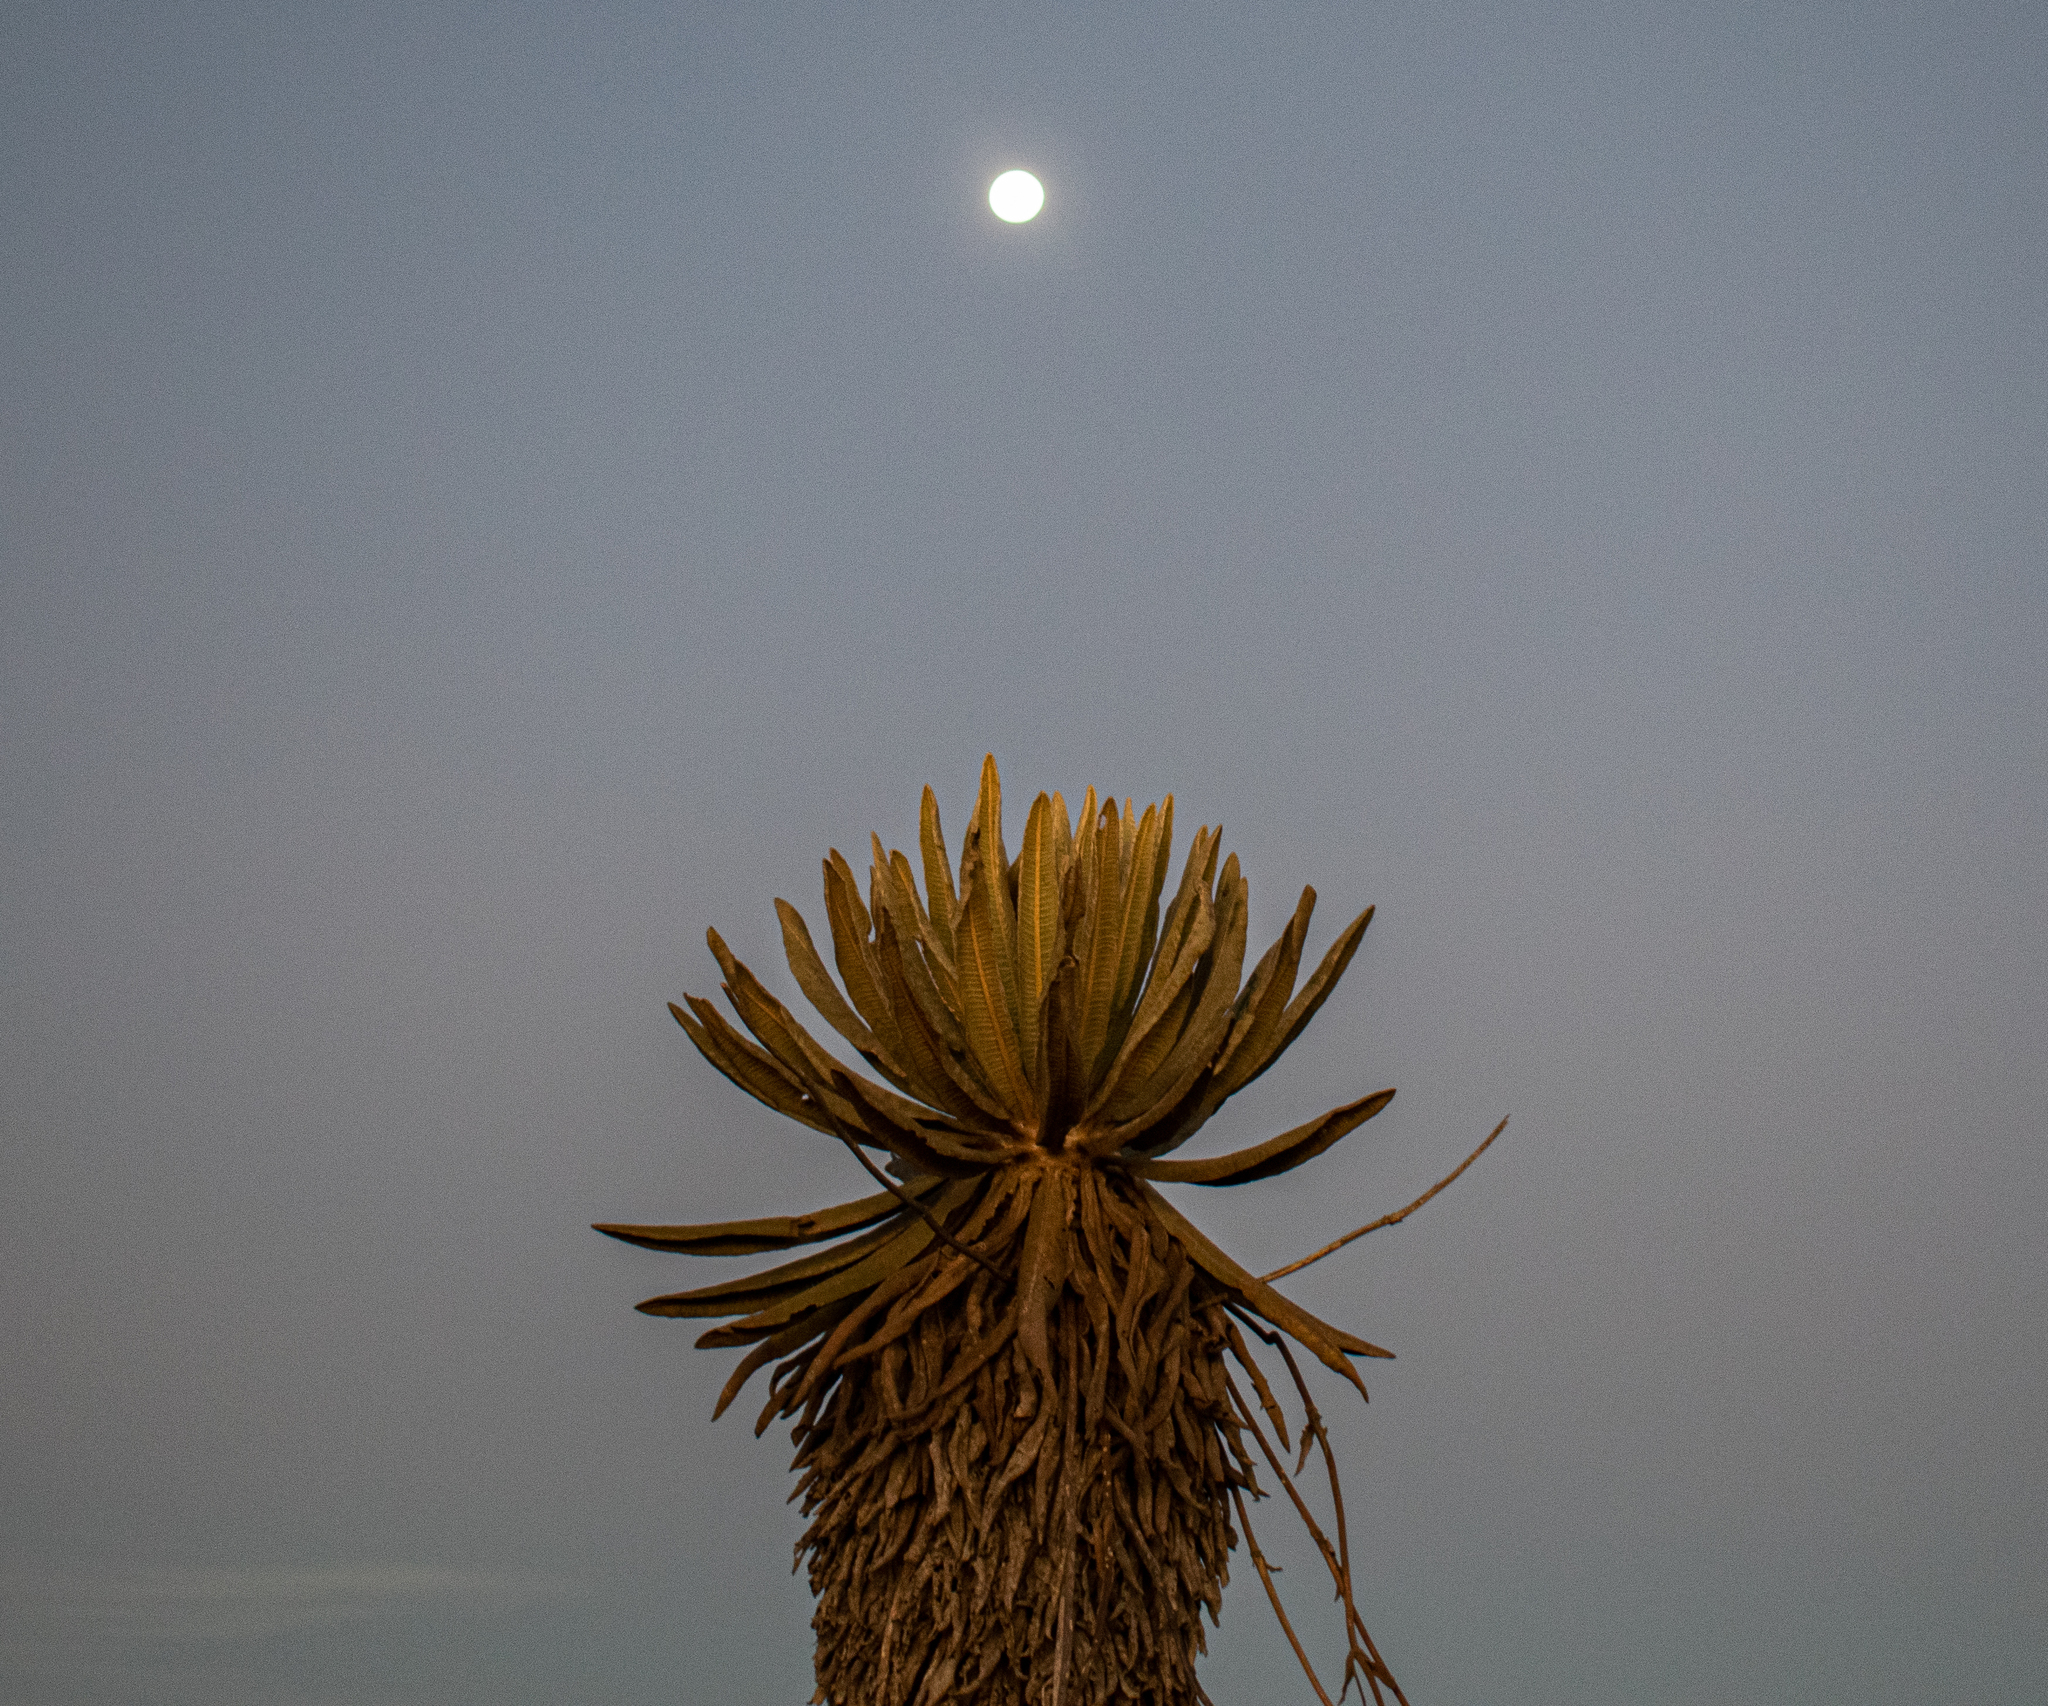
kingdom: Plantae
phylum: Tracheophyta
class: Magnoliopsida
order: Asterales
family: Asteraceae
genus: Espeletia
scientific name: Espeletia occidentalis
